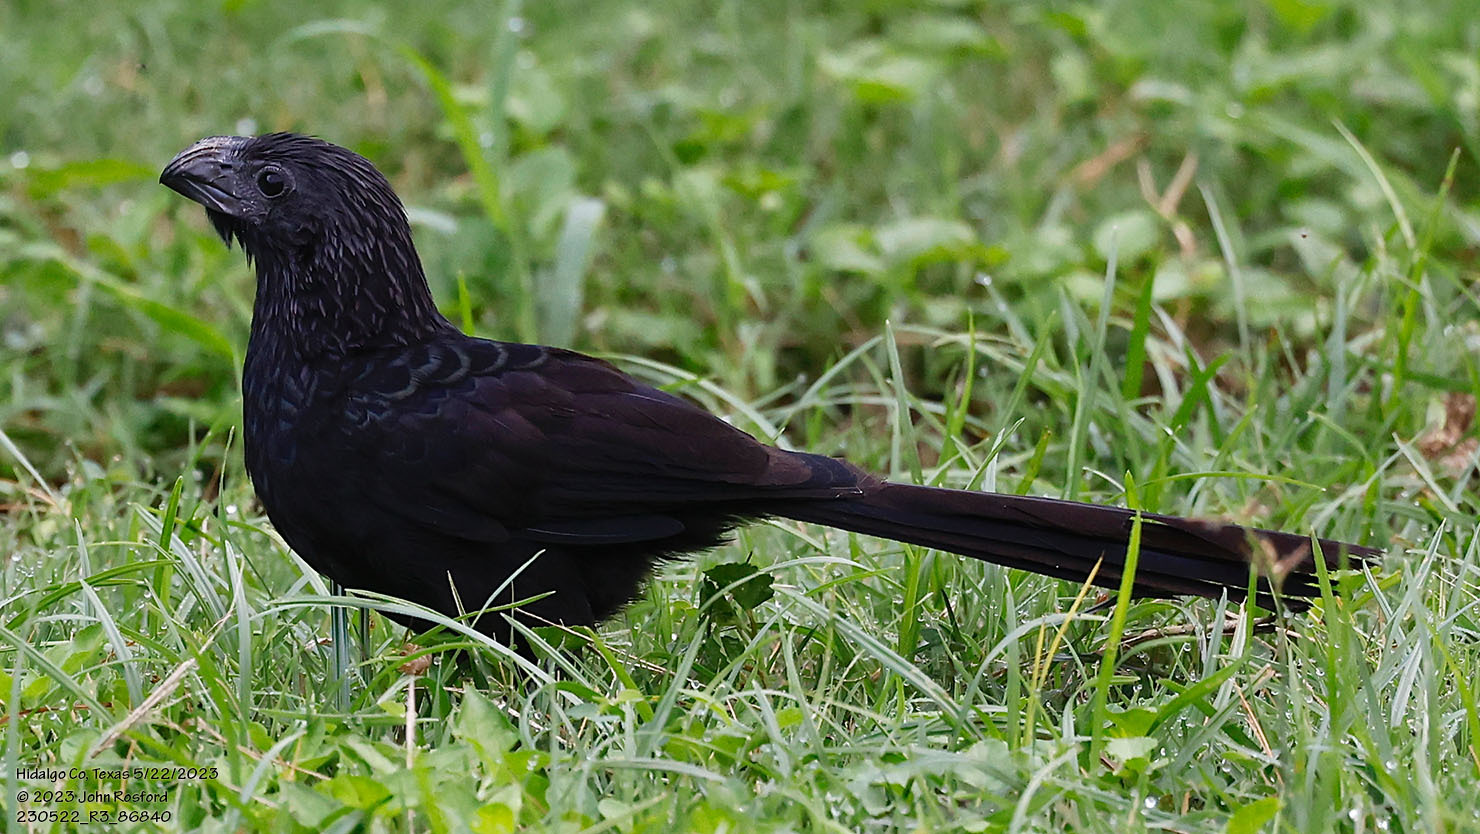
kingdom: Animalia
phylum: Chordata
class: Aves
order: Cuculiformes
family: Cuculidae
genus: Crotophaga
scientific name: Crotophaga sulcirostris
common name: Groove-billed ani
